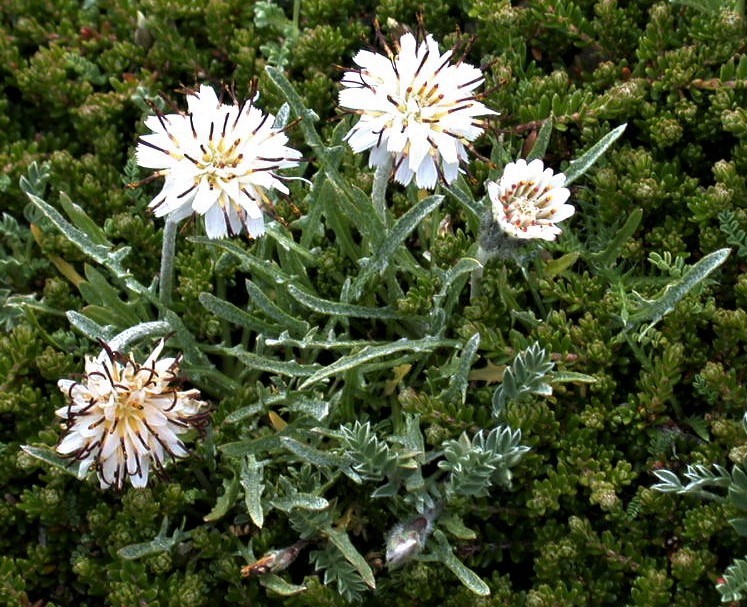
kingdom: Plantae
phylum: Tracheophyta
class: Magnoliopsida
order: Asterales
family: Asteraceae
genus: Hypochaeris
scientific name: Hypochaeris incana
